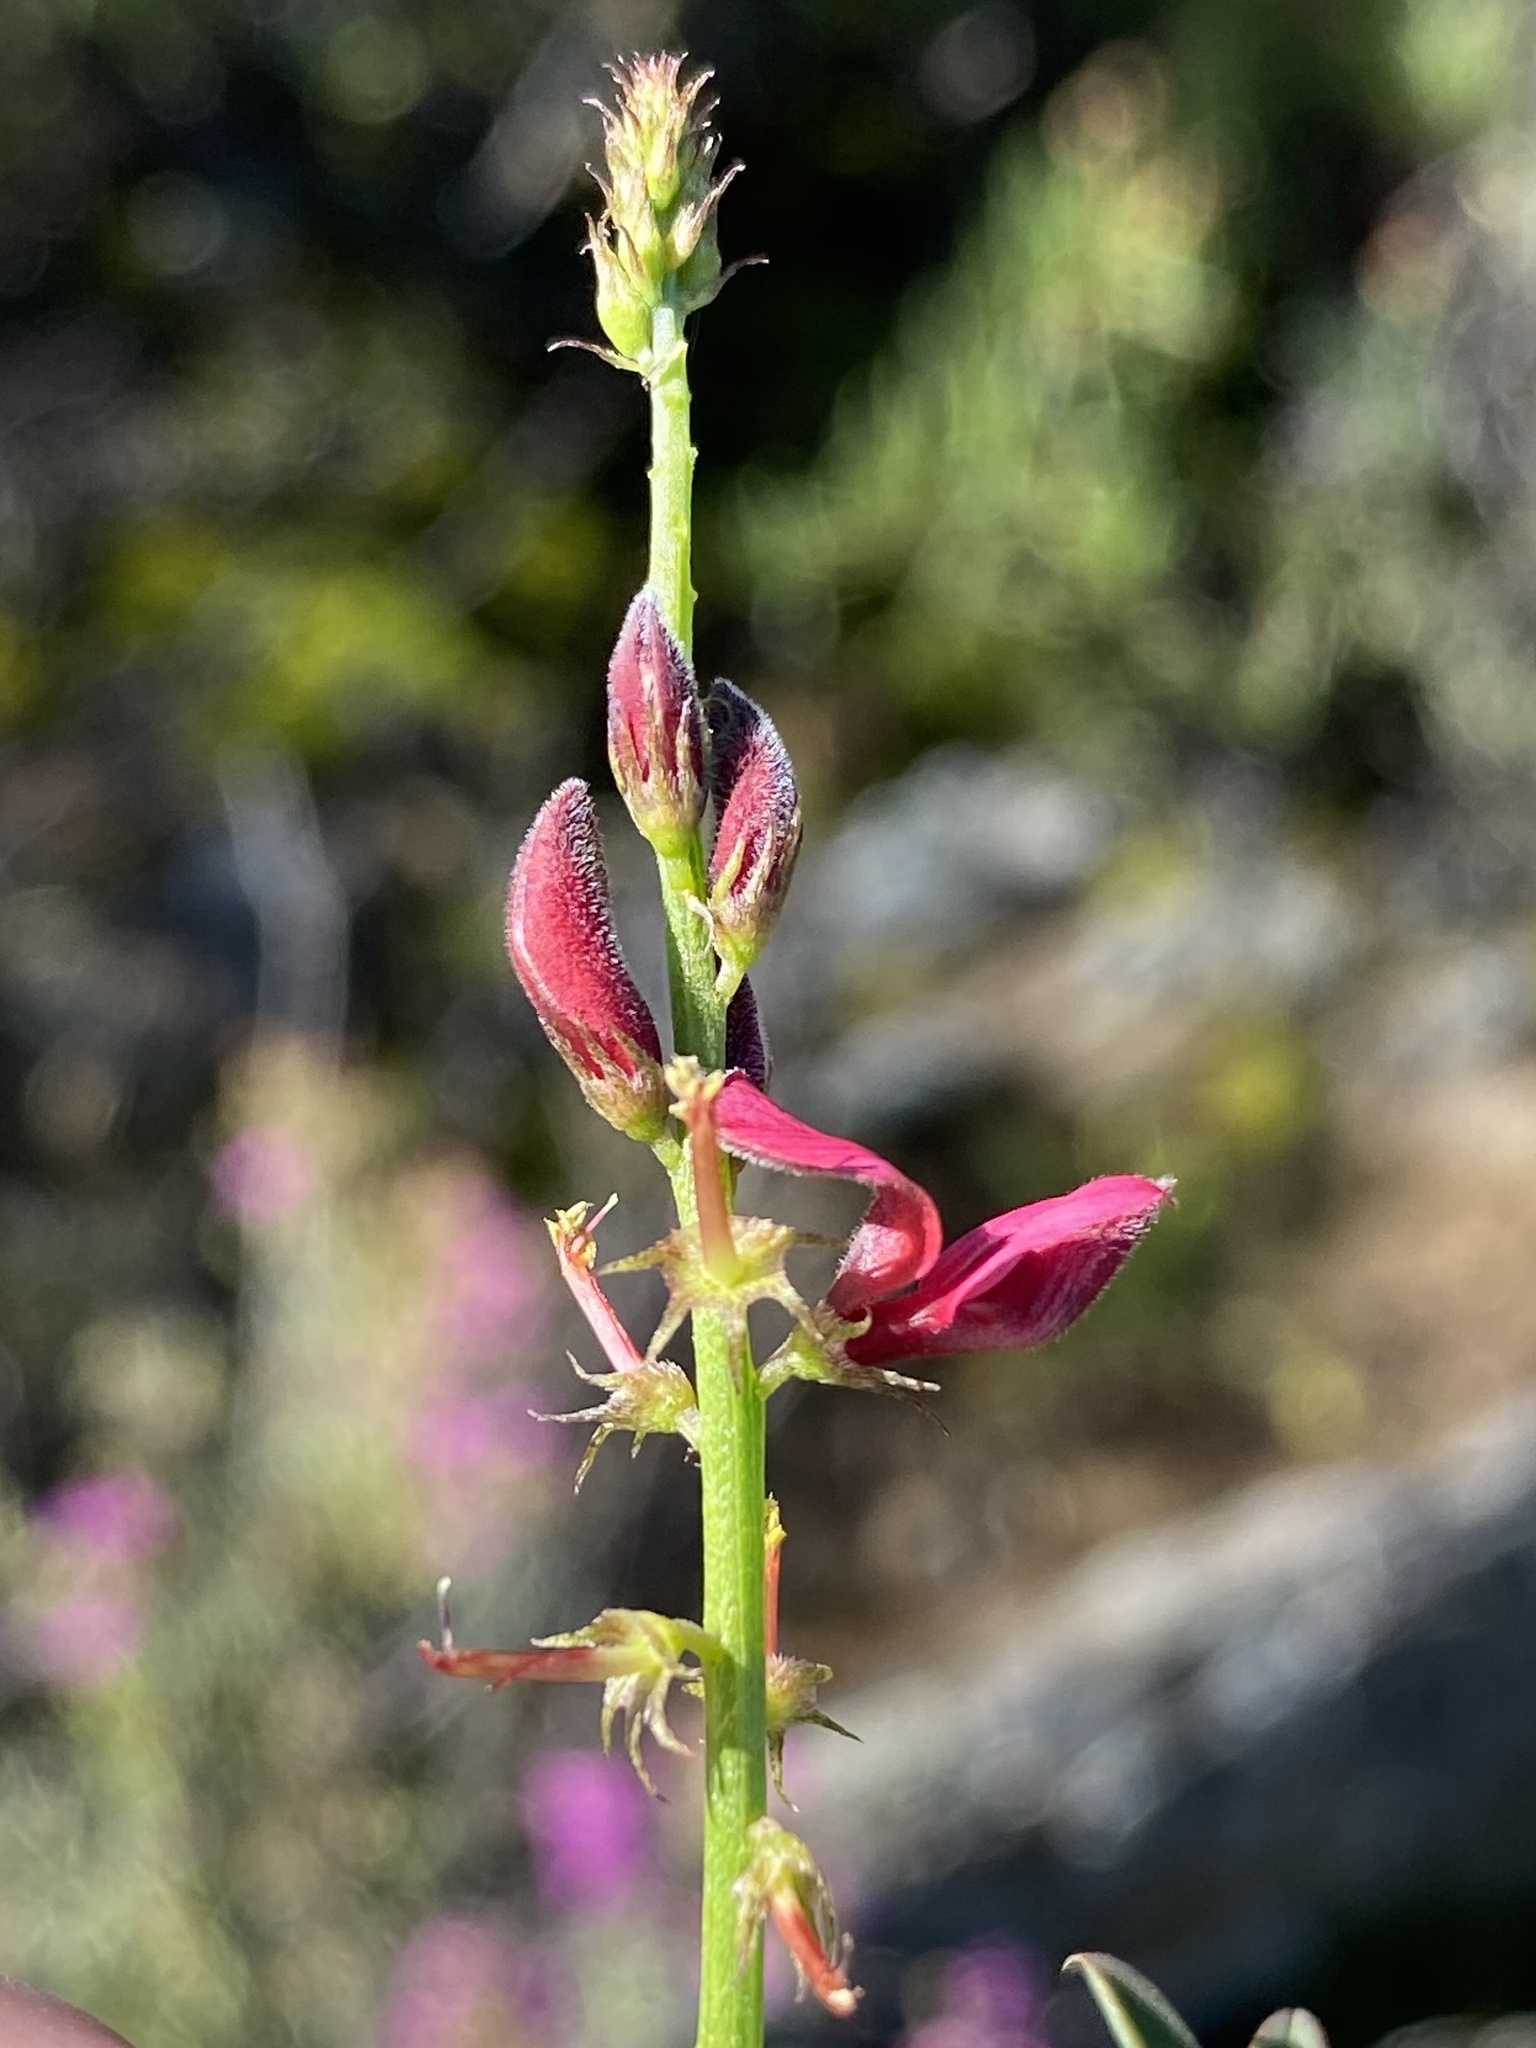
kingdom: Plantae
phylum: Tracheophyta
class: Magnoliopsida
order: Fabales
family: Fabaceae
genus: Indigofera
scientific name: Indigofera heterophylla
